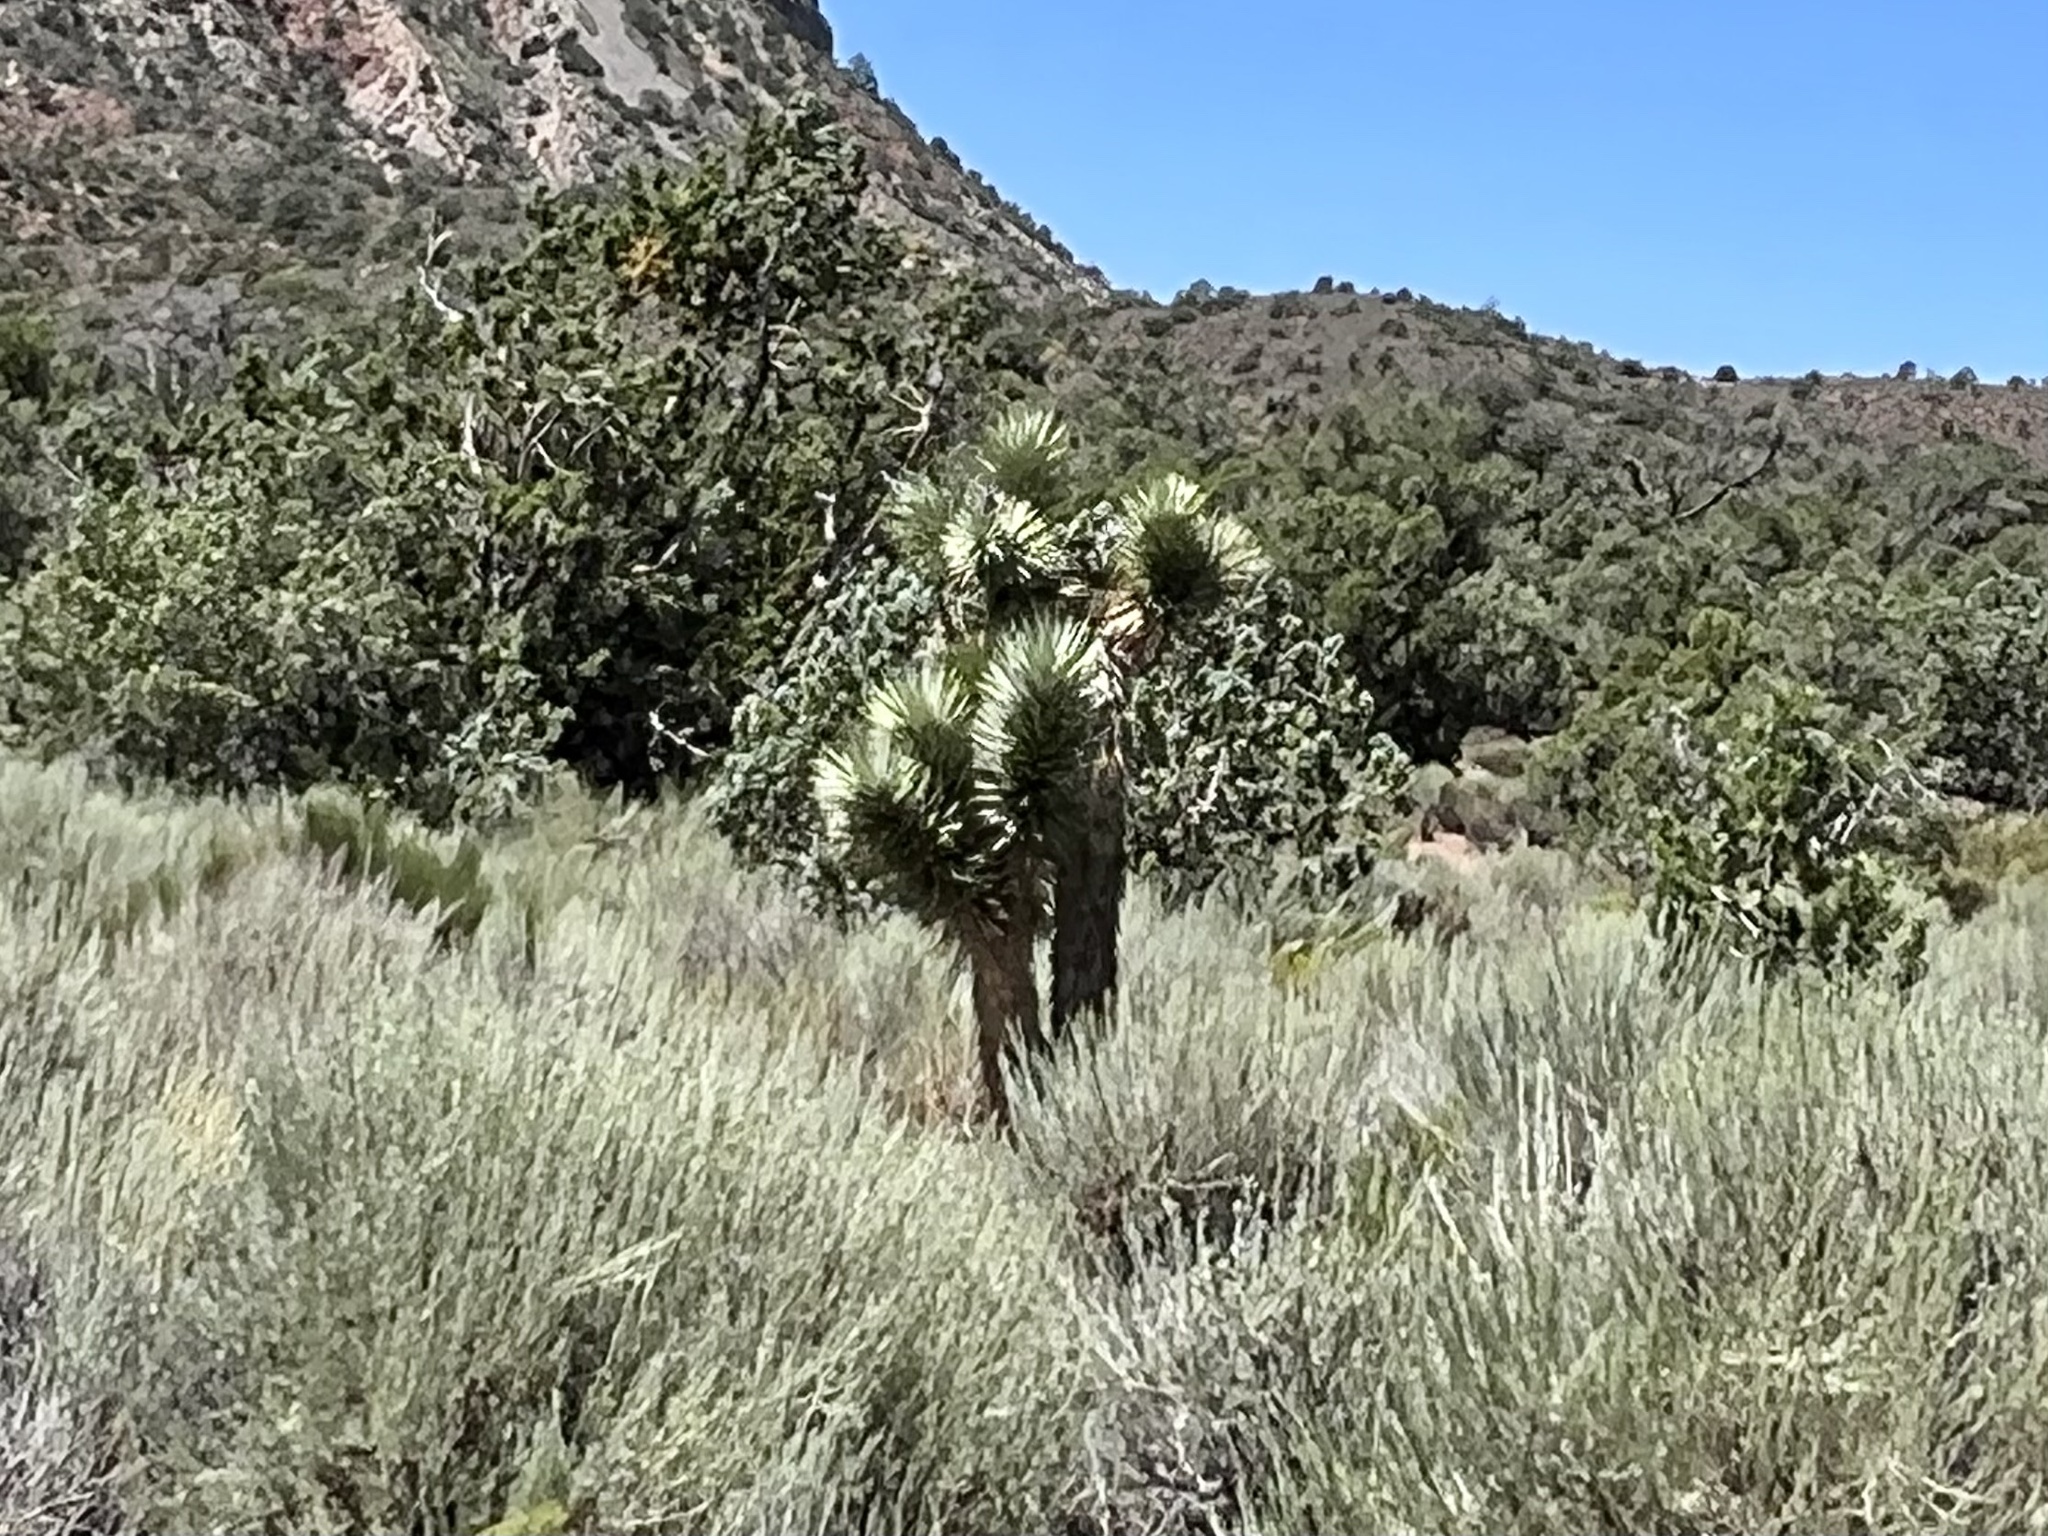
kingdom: Plantae
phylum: Tracheophyta
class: Liliopsida
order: Asparagales
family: Asparagaceae
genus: Yucca
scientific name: Yucca brevifolia
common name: Joshua tree
